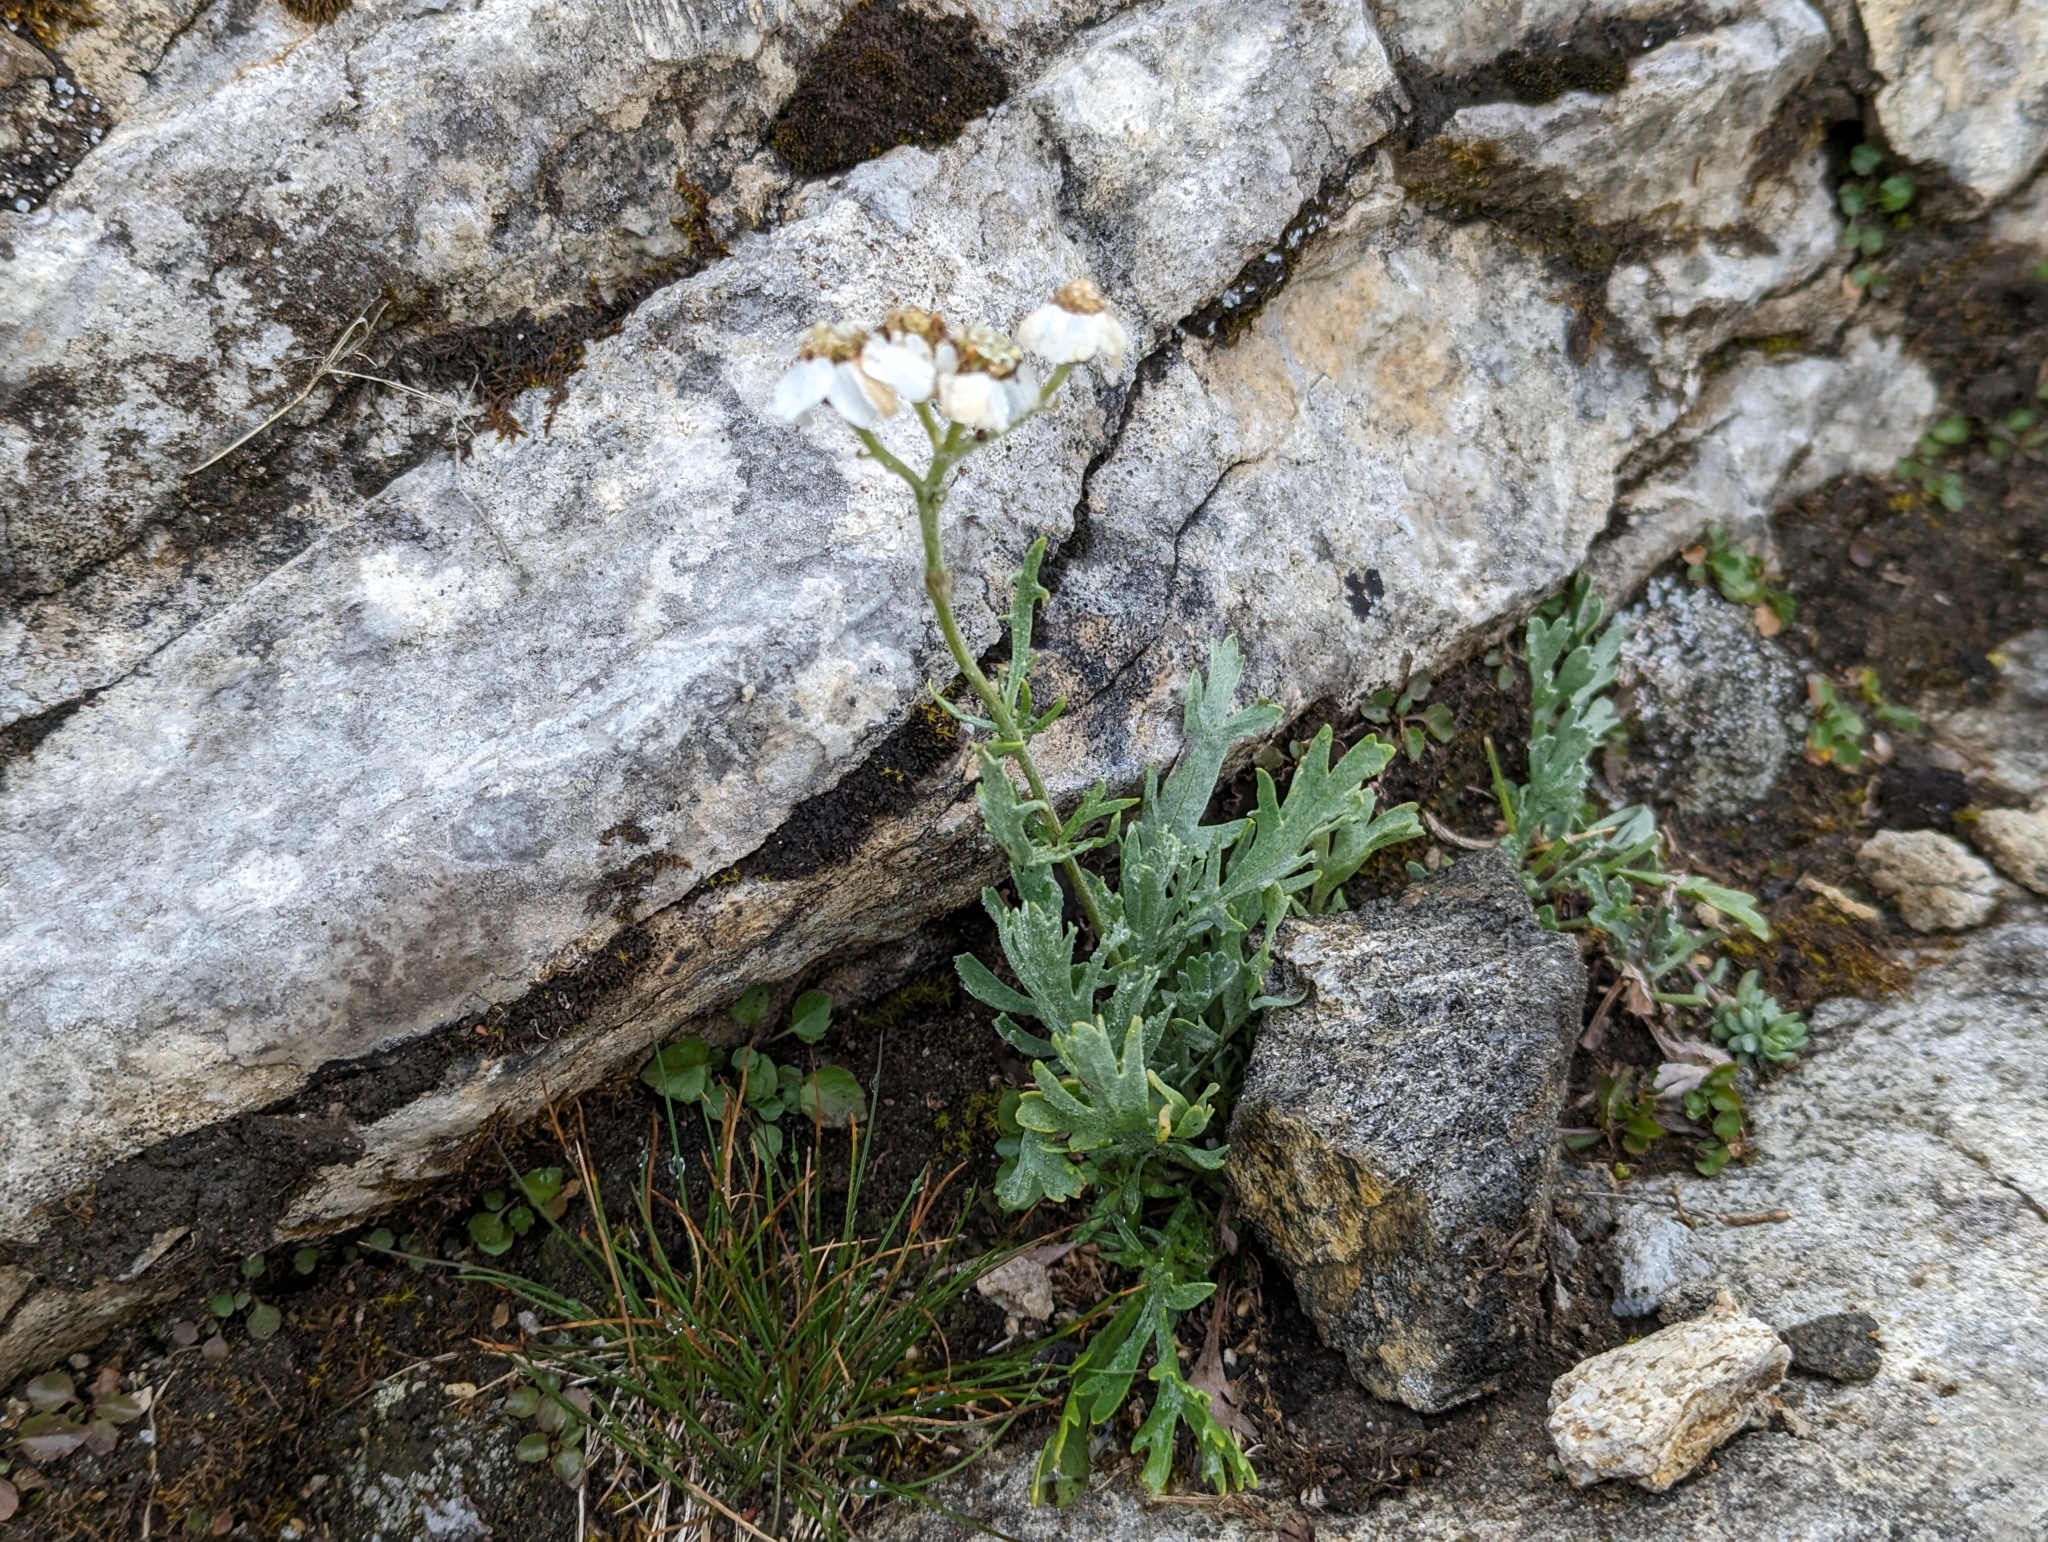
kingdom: Plantae
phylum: Tracheophyta
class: Magnoliopsida
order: Asterales
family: Asteraceae
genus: Achillea
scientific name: Achillea clavennae
